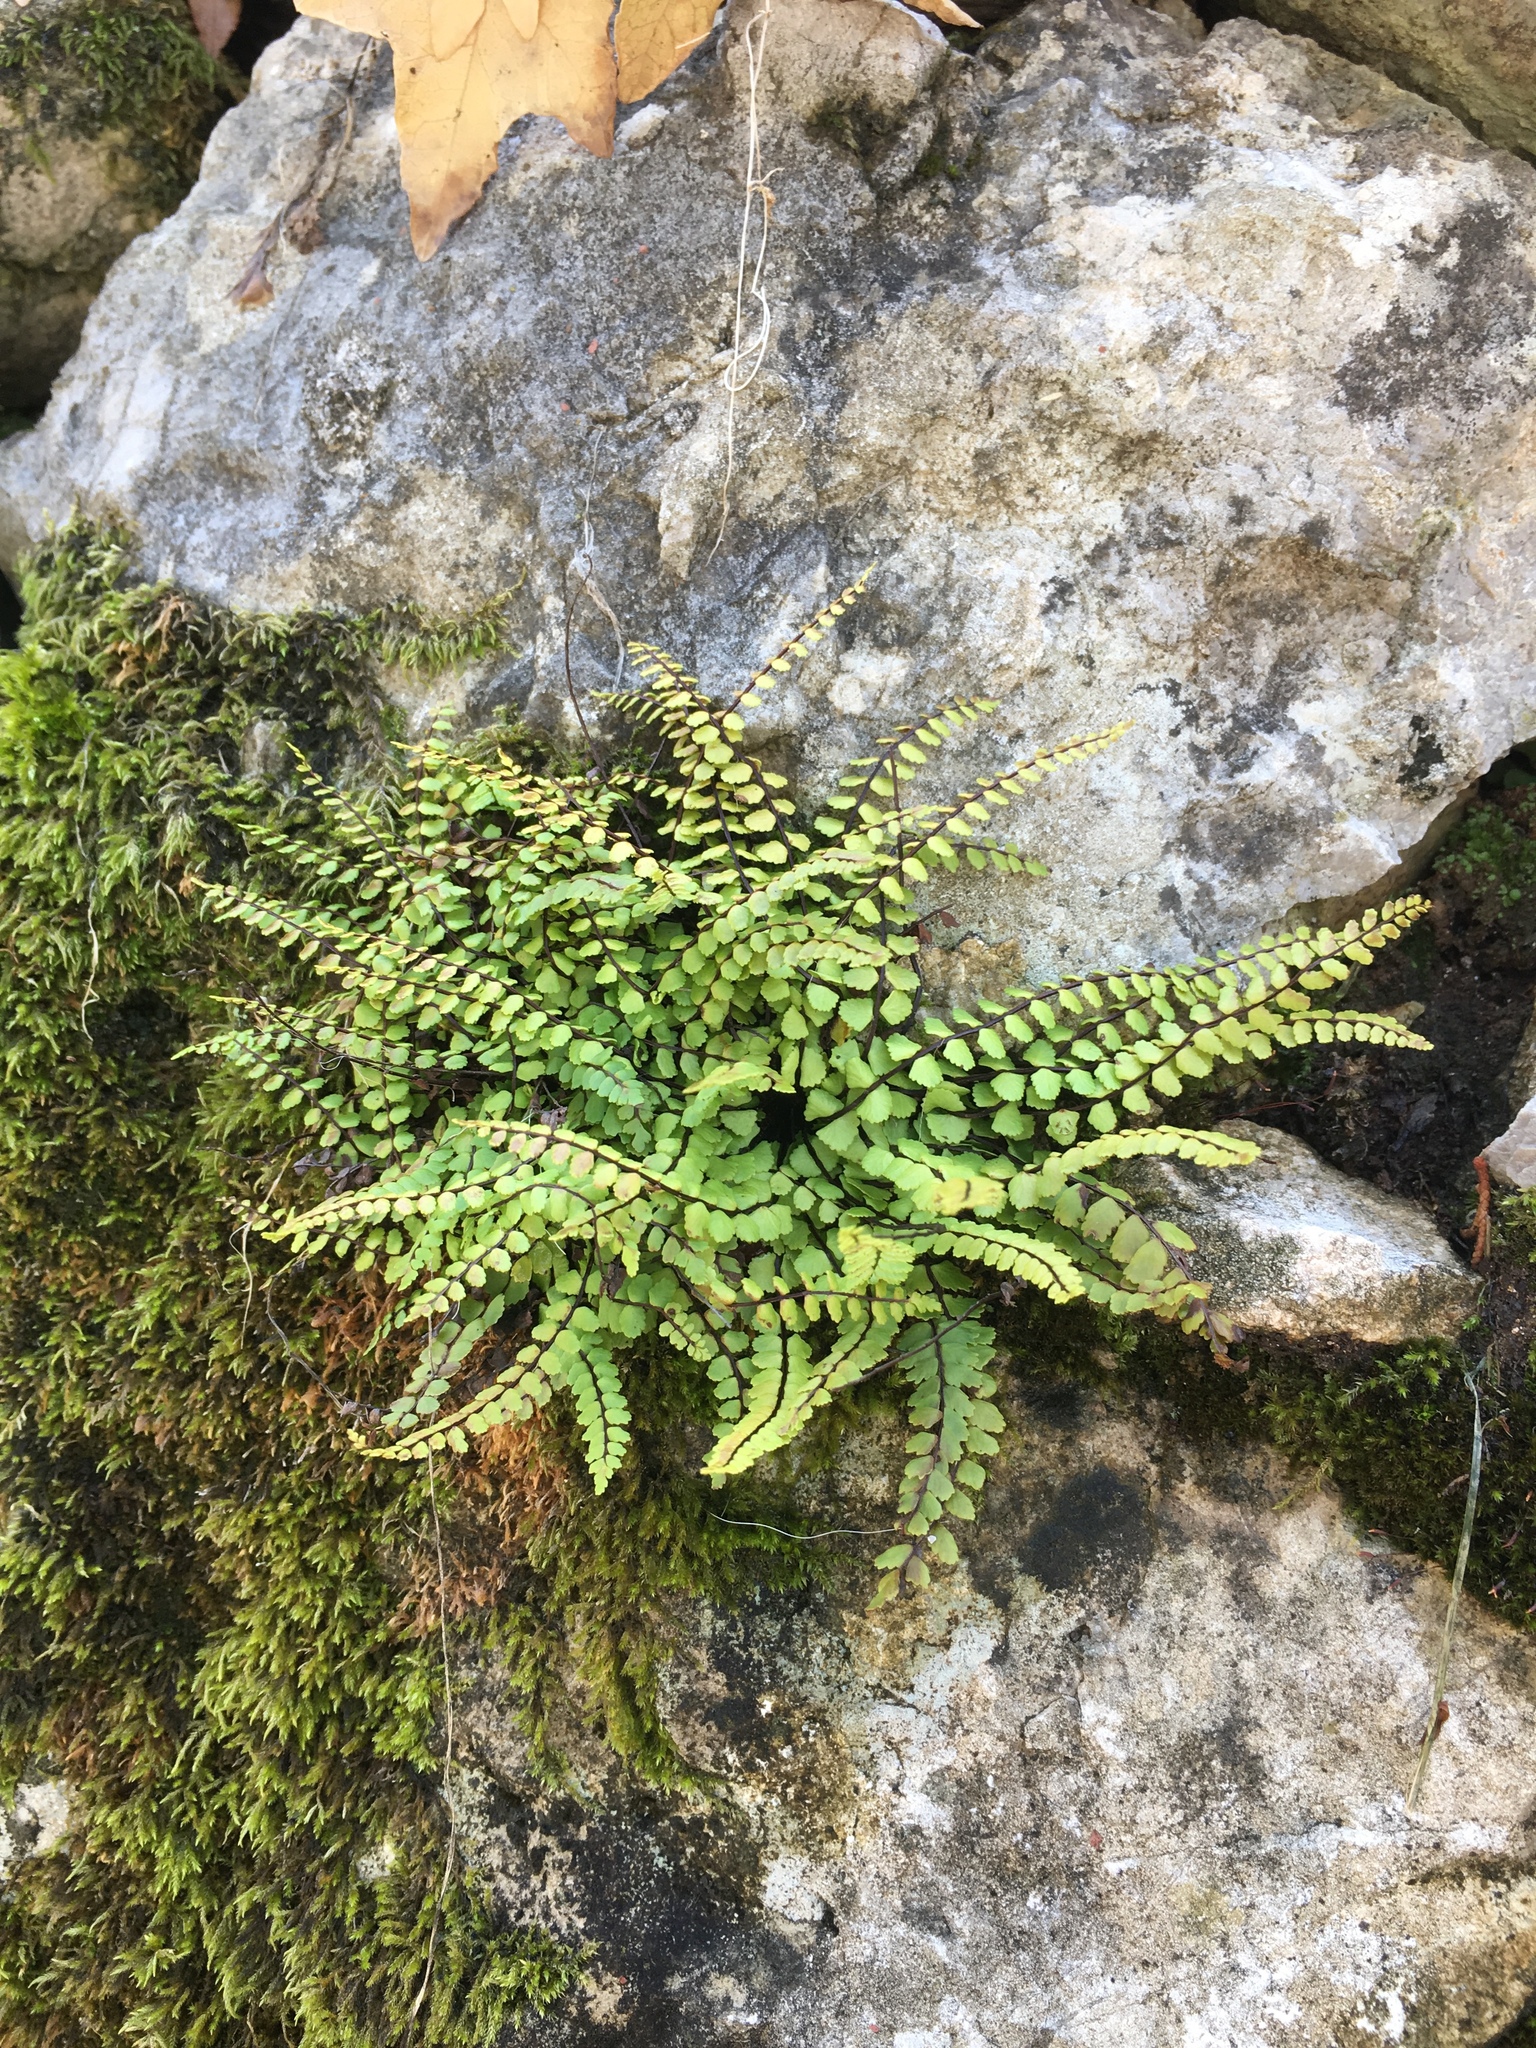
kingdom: Plantae
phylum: Tracheophyta
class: Polypodiopsida
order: Polypodiales
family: Aspleniaceae
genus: Asplenium
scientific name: Asplenium trichomanes
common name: Maidenhair spleenwort
